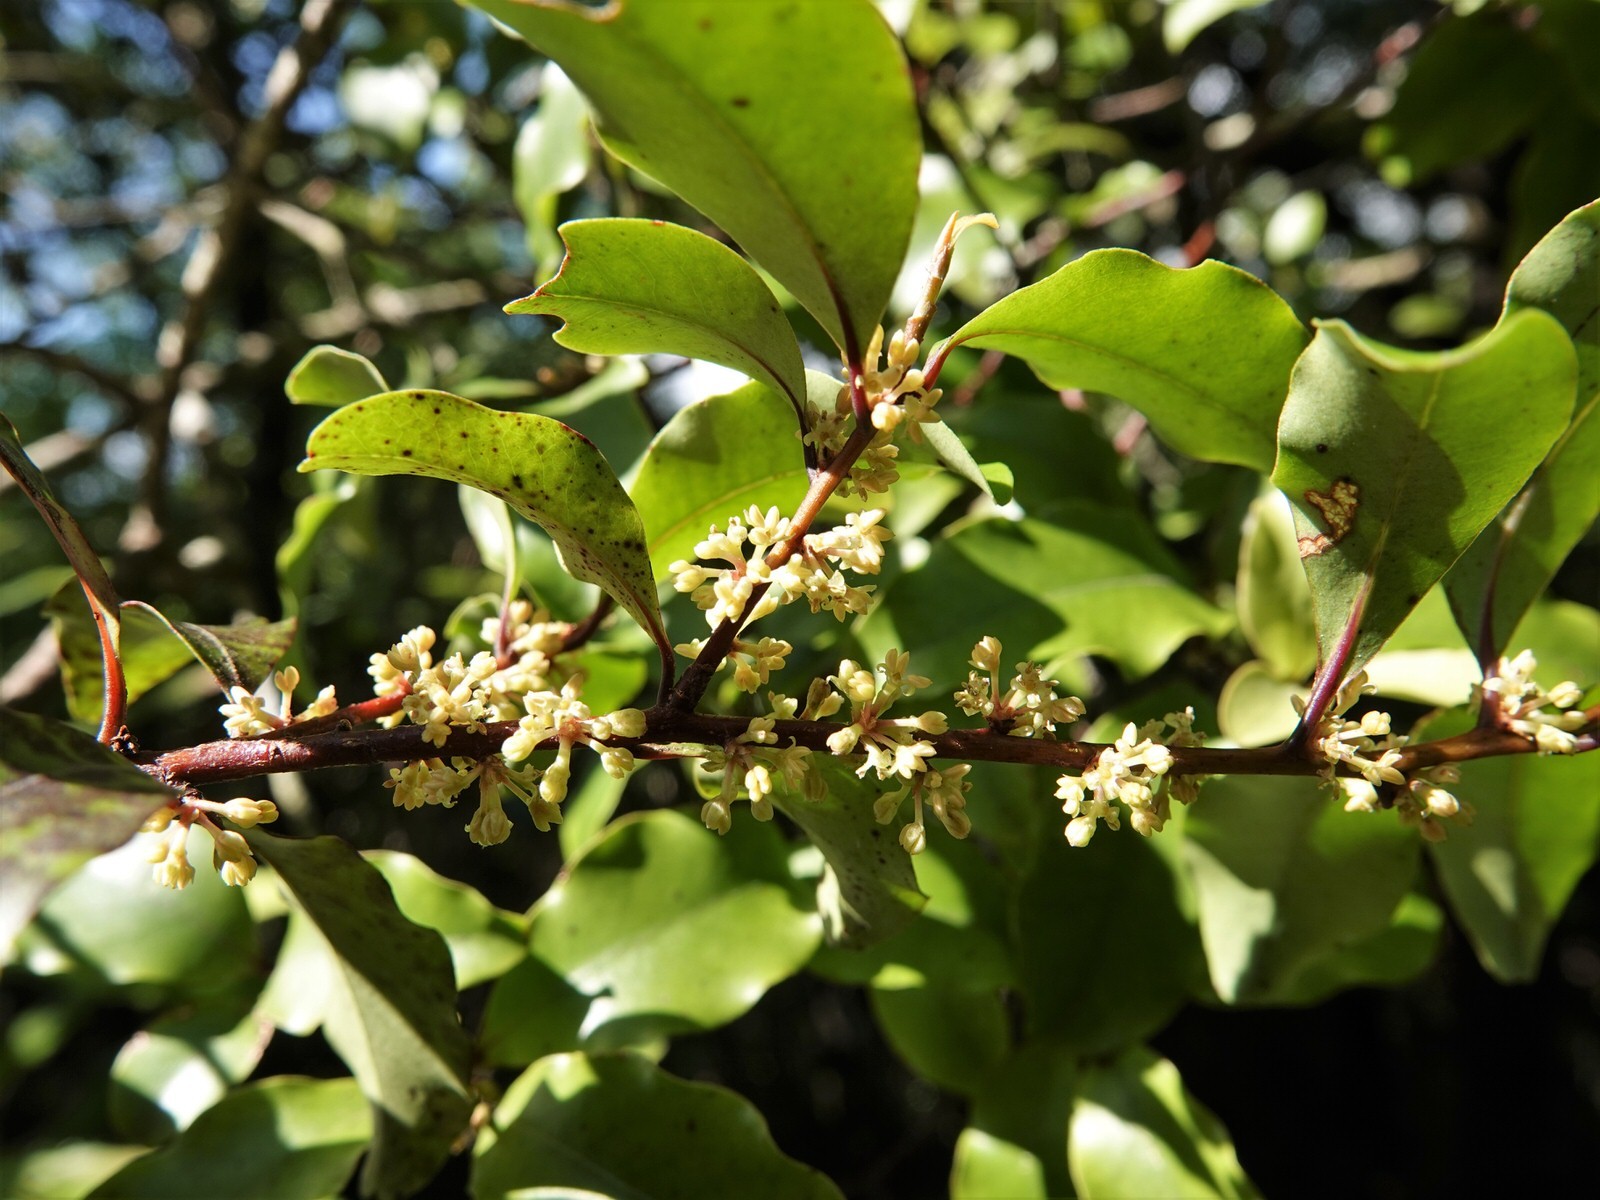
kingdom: Plantae
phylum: Tracheophyta
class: Magnoliopsida
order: Ericales
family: Primulaceae
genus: Myrsine
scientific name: Myrsine australis
